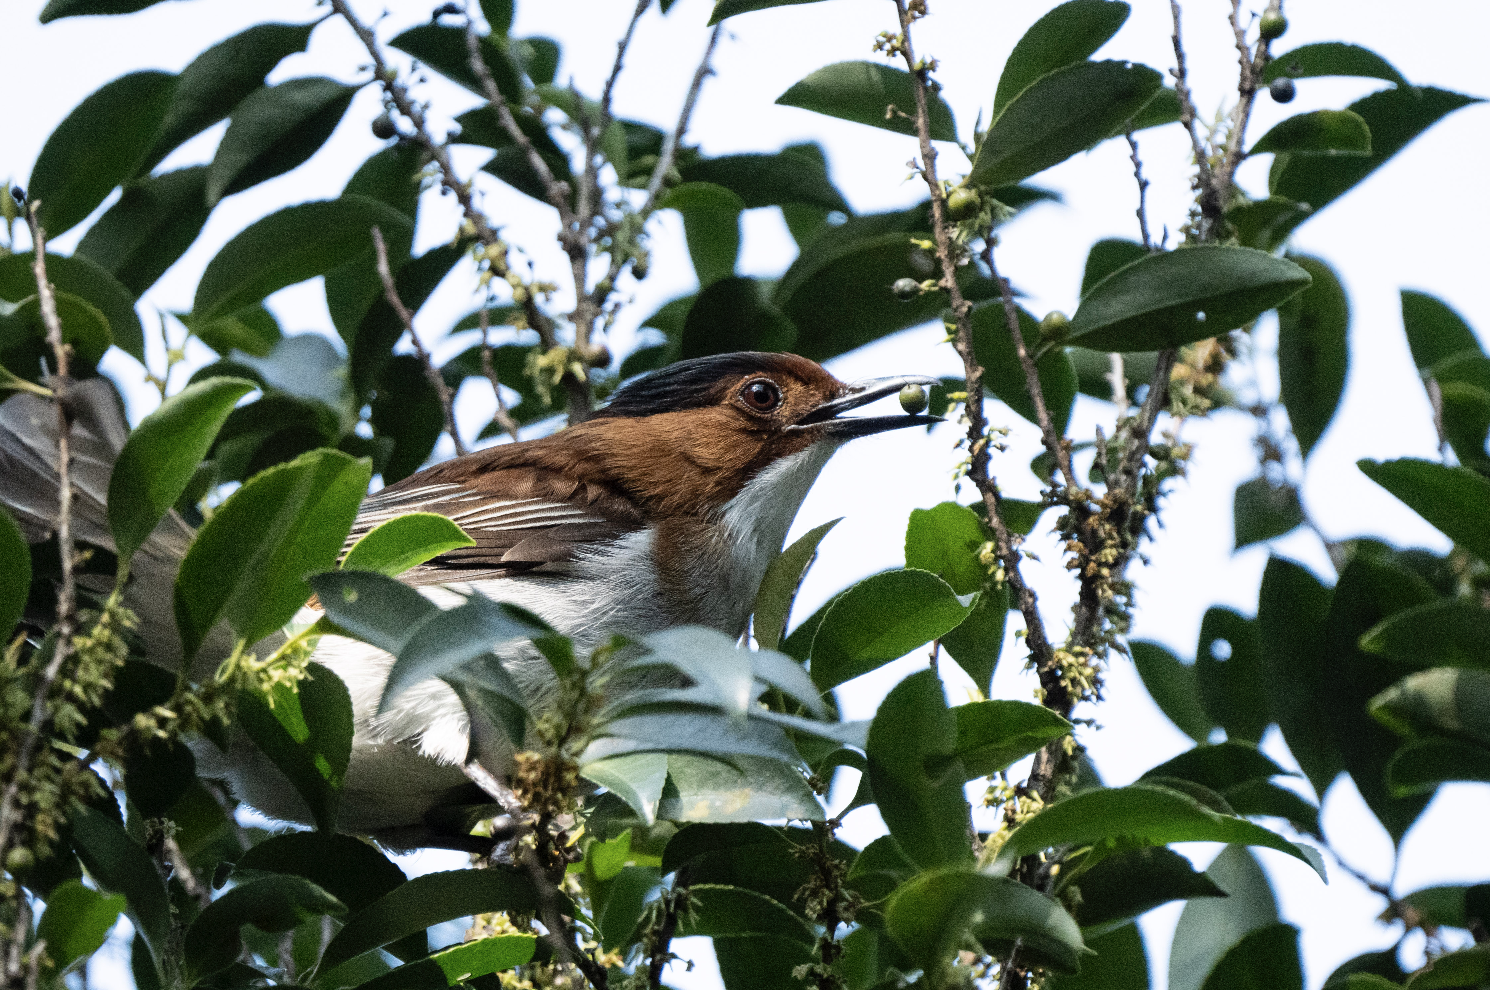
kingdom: Animalia
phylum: Chordata
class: Aves
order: Passeriformes
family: Pycnonotidae
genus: Hemixos
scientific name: Hemixos castanonotus
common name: Chestnut bulbul
